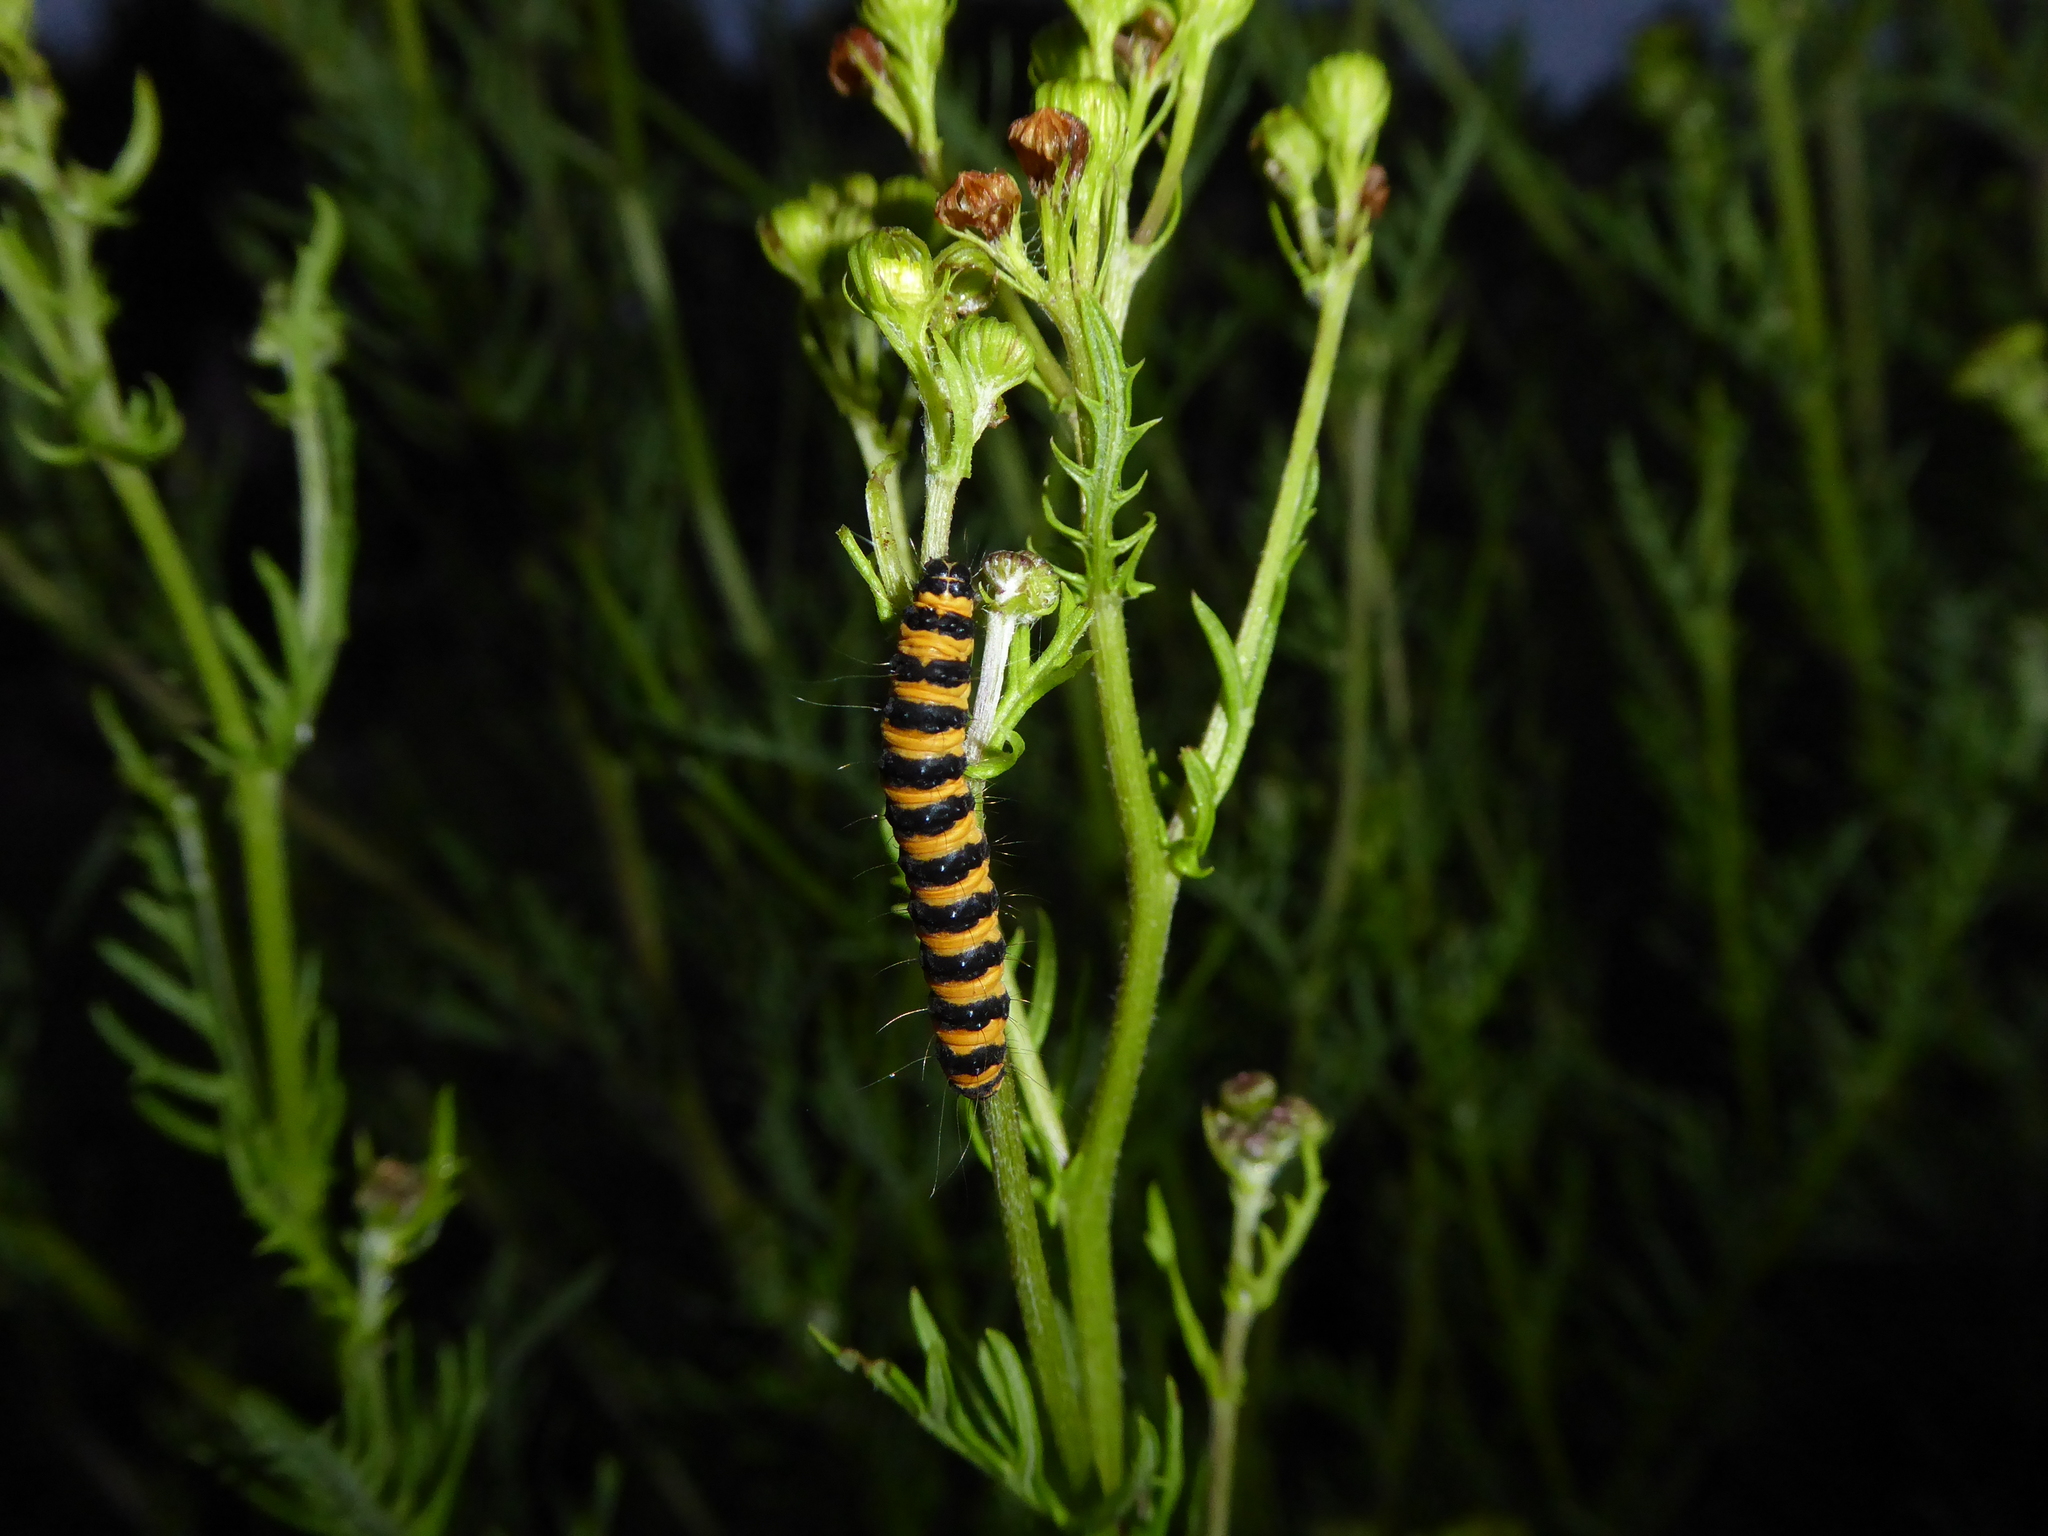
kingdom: Animalia
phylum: Arthropoda
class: Insecta
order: Lepidoptera
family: Erebidae
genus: Tyria
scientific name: Tyria jacobaeae
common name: Cinnabar
